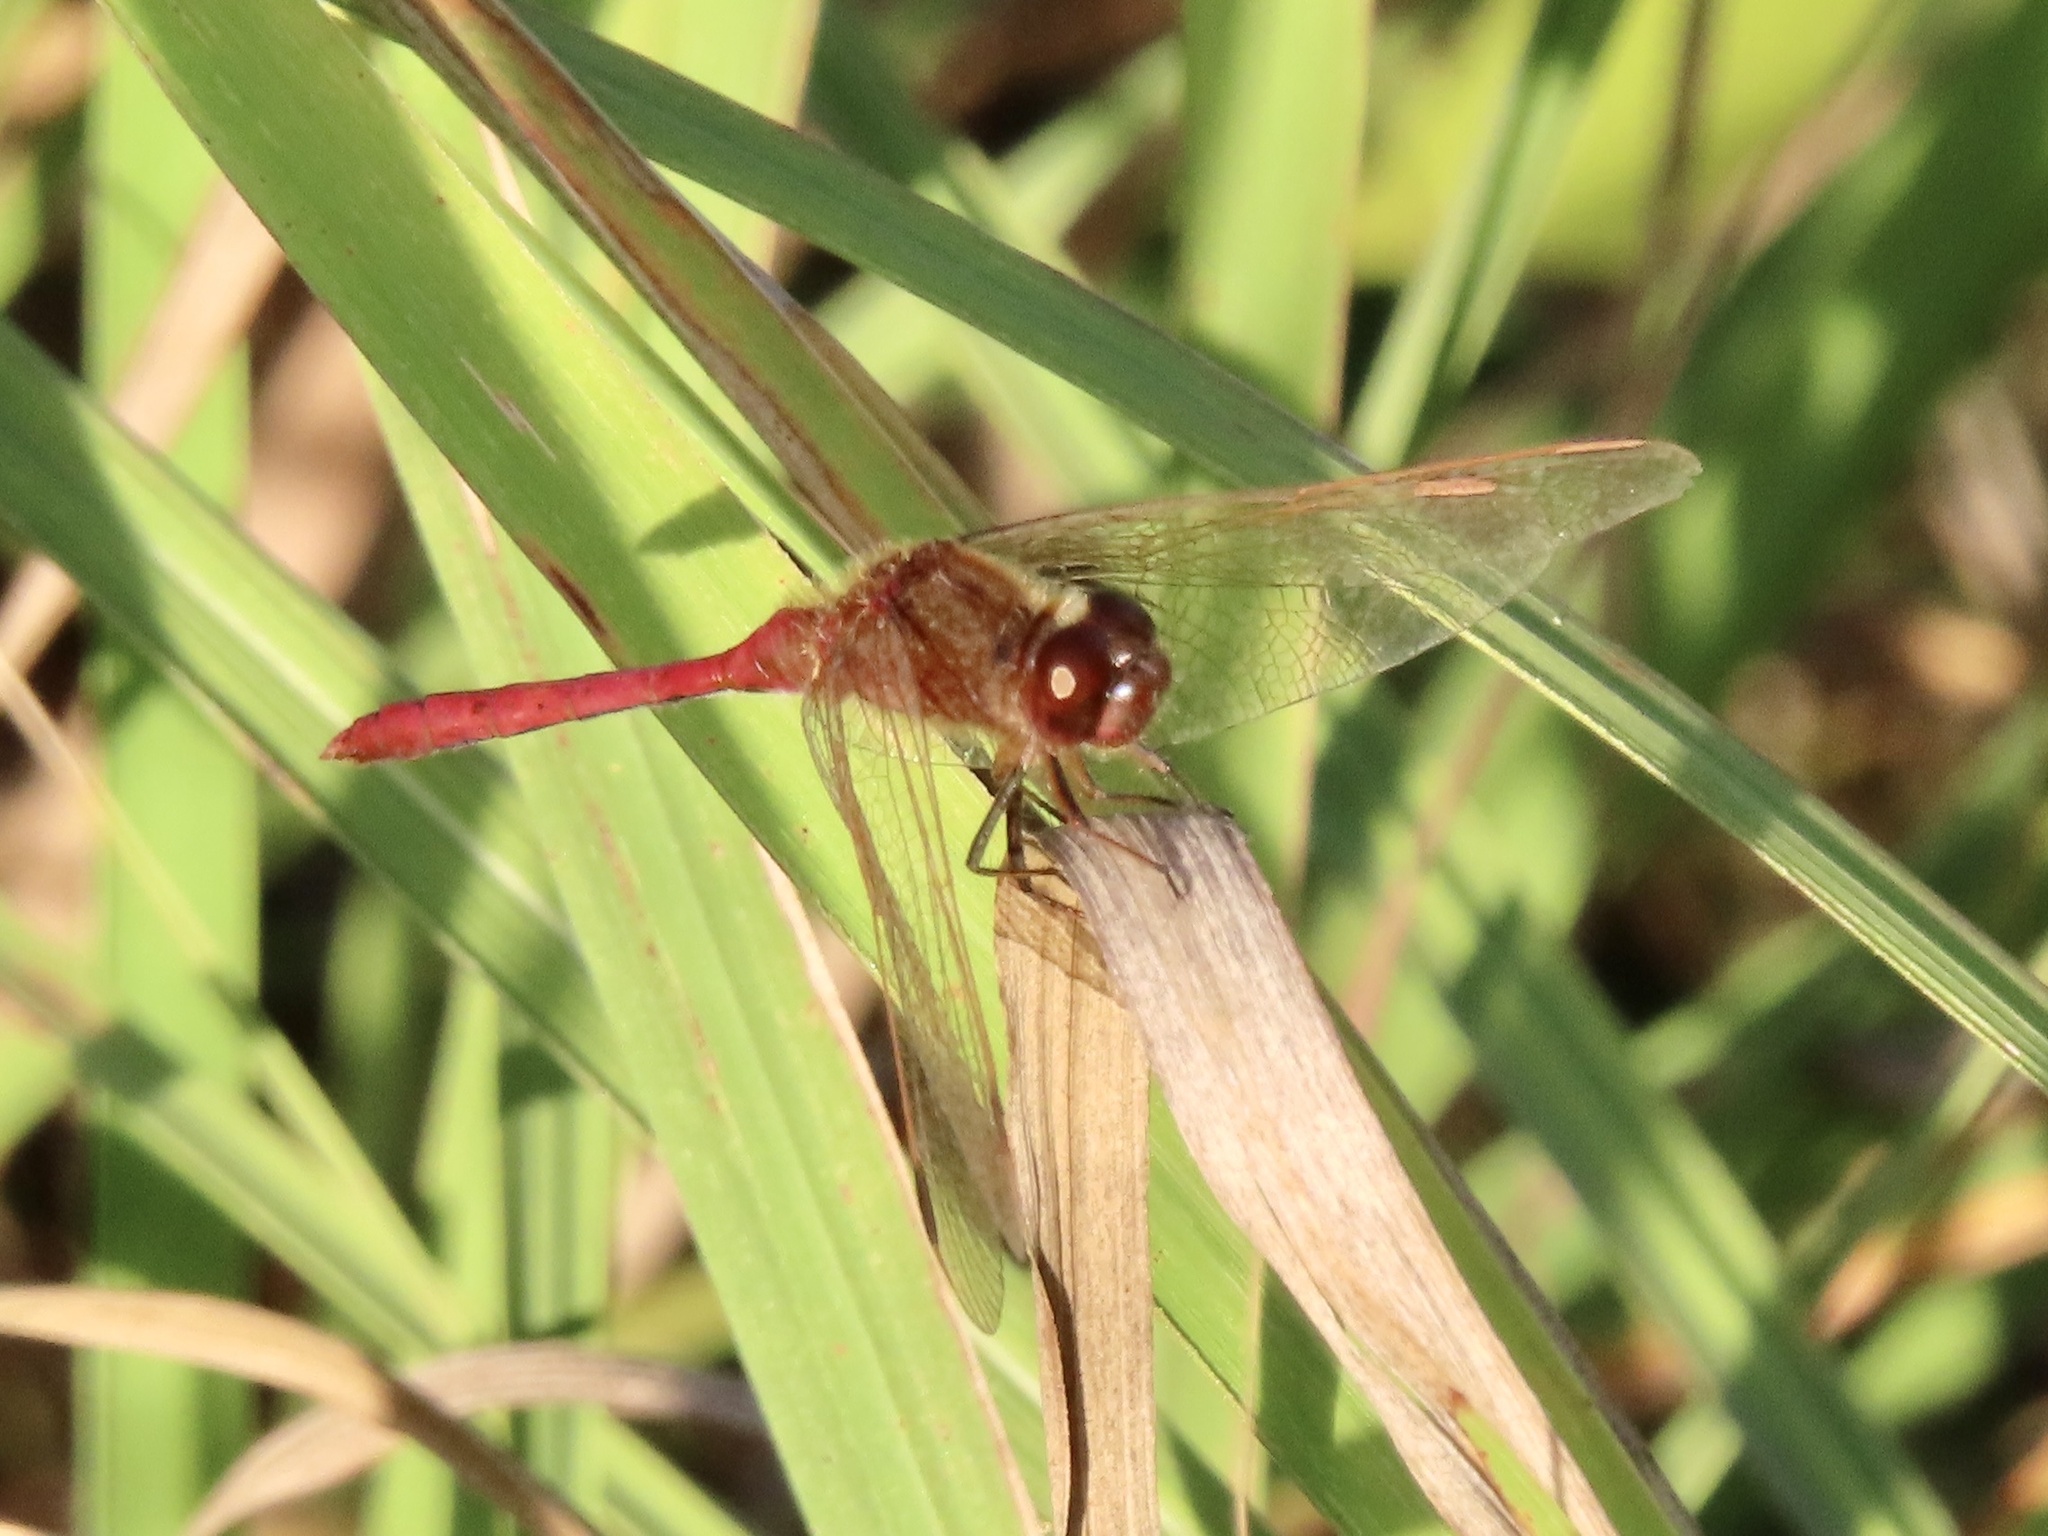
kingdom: Animalia
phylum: Arthropoda
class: Insecta
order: Odonata
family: Libellulidae
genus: Sympetrum
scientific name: Sympetrum costiferum
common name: Saffron-winged meadowhawk
